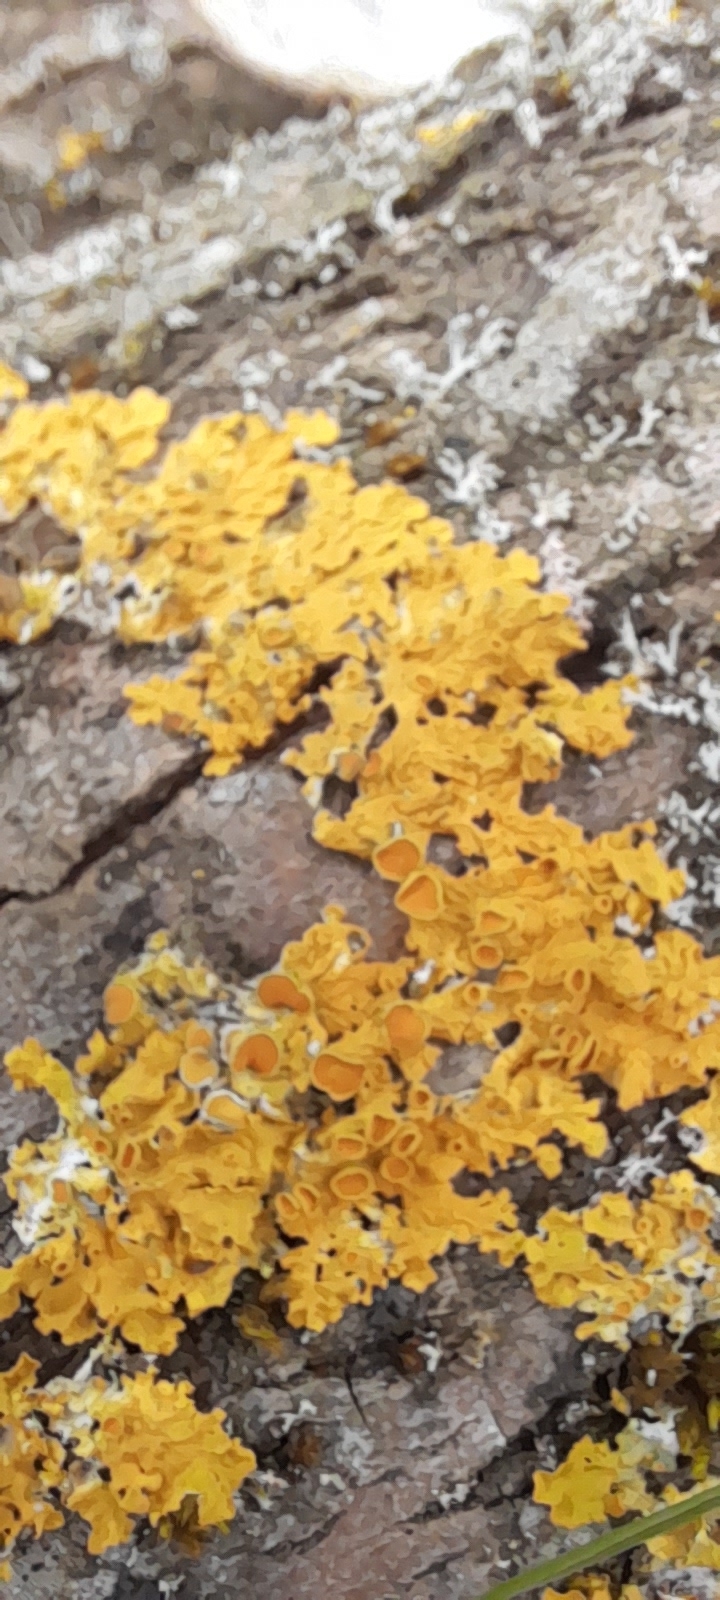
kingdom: Fungi
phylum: Ascomycota
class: Lecanoromycetes
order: Teloschistales
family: Teloschistaceae
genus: Xanthoria
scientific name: Xanthoria parietina
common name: Common orange lichen
